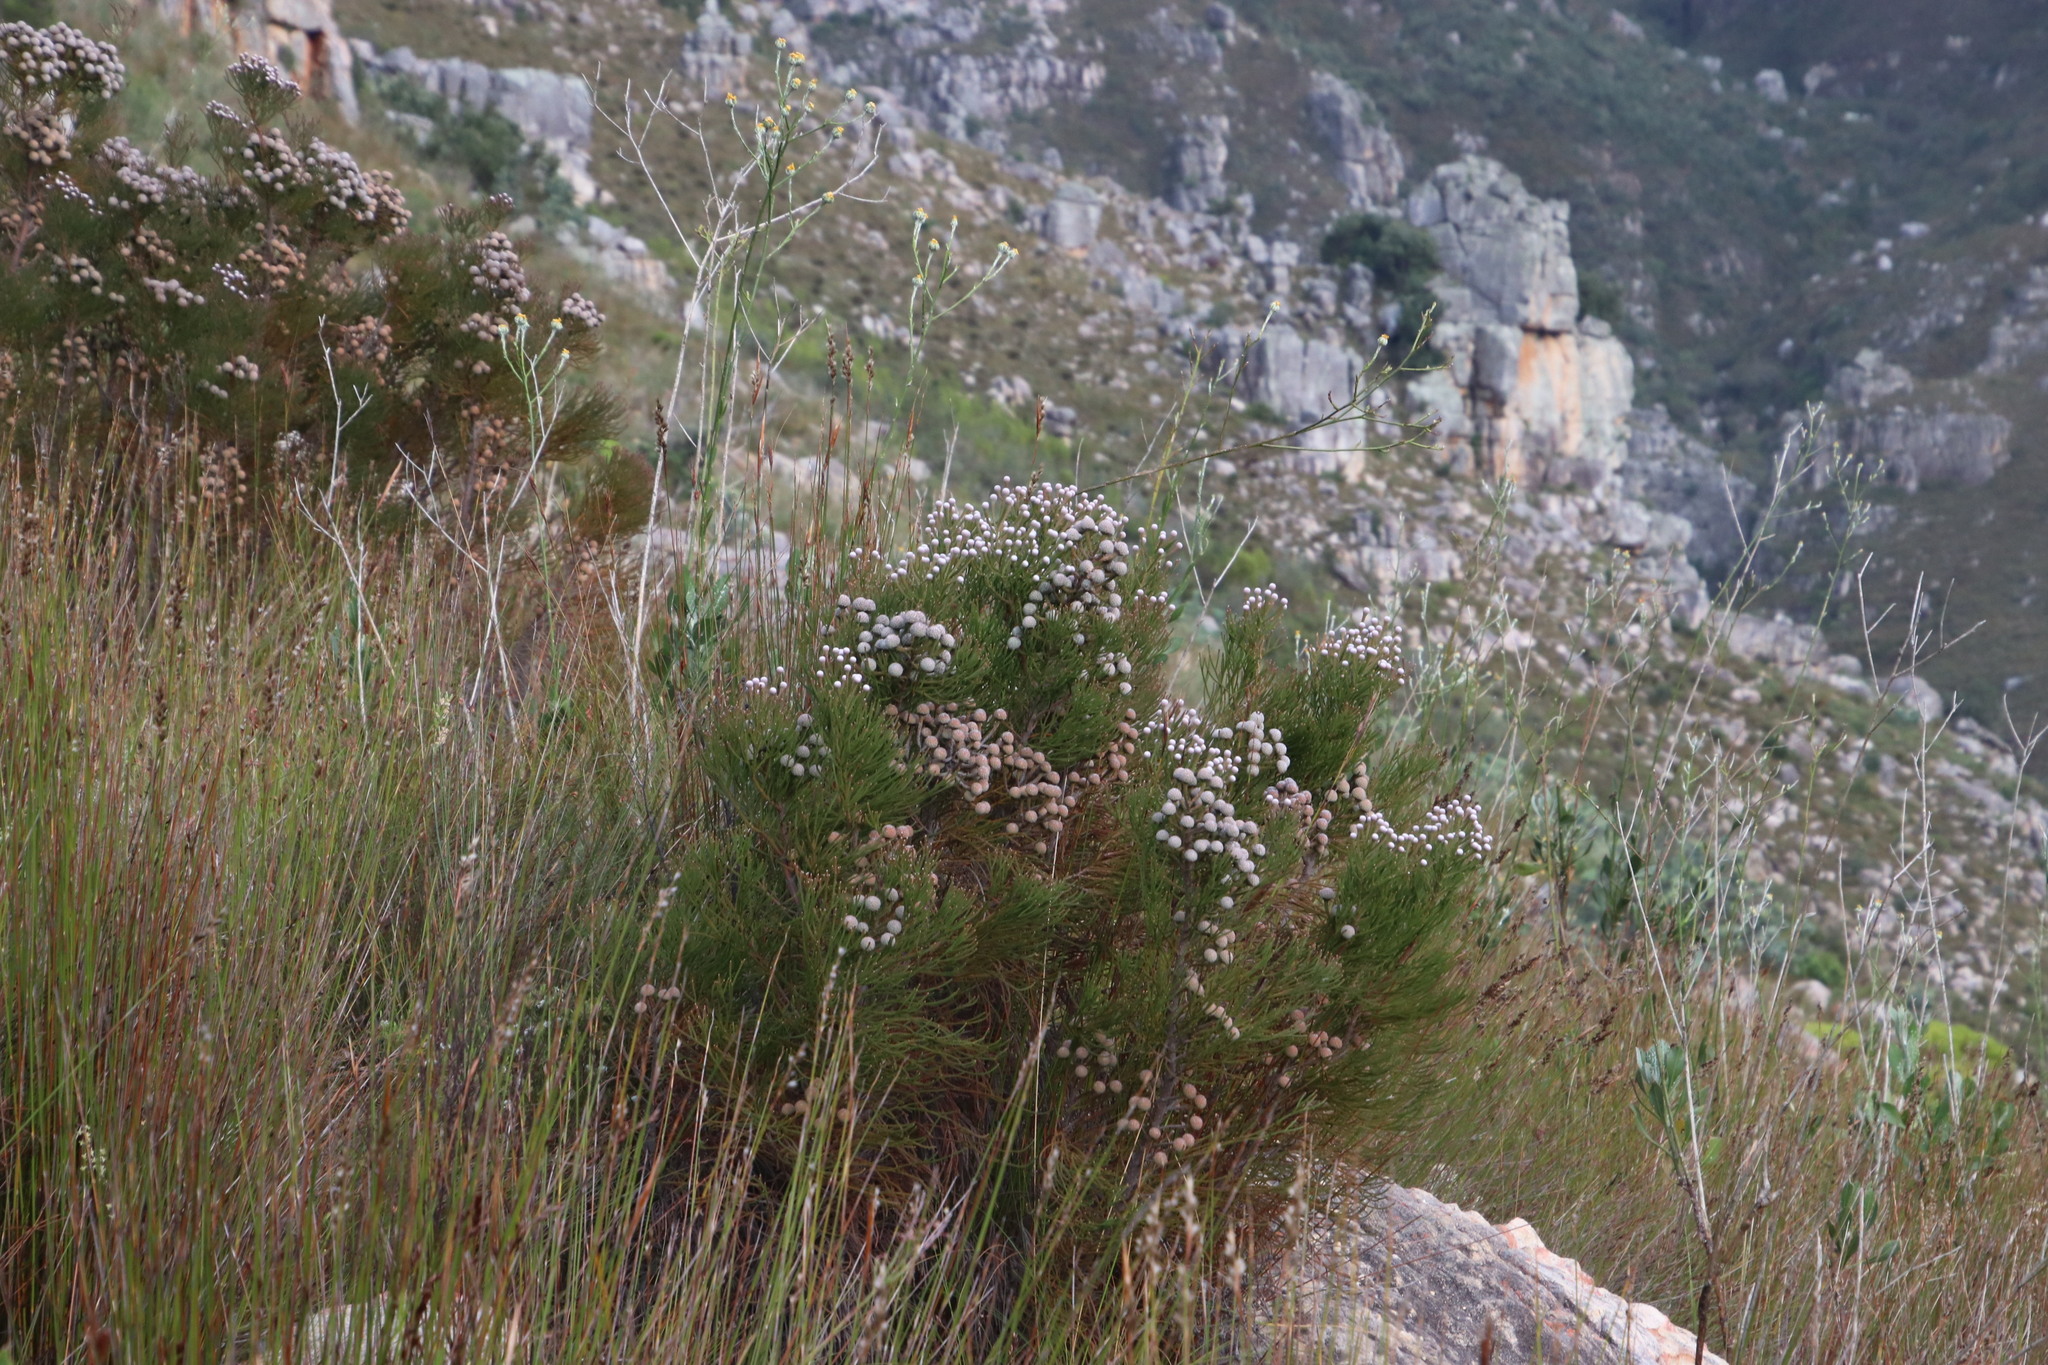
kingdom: Plantae
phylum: Tracheophyta
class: Magnoliopsida
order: Bruniales
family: Bruniaceae
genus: Brunia
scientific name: Brunia noduliflora
